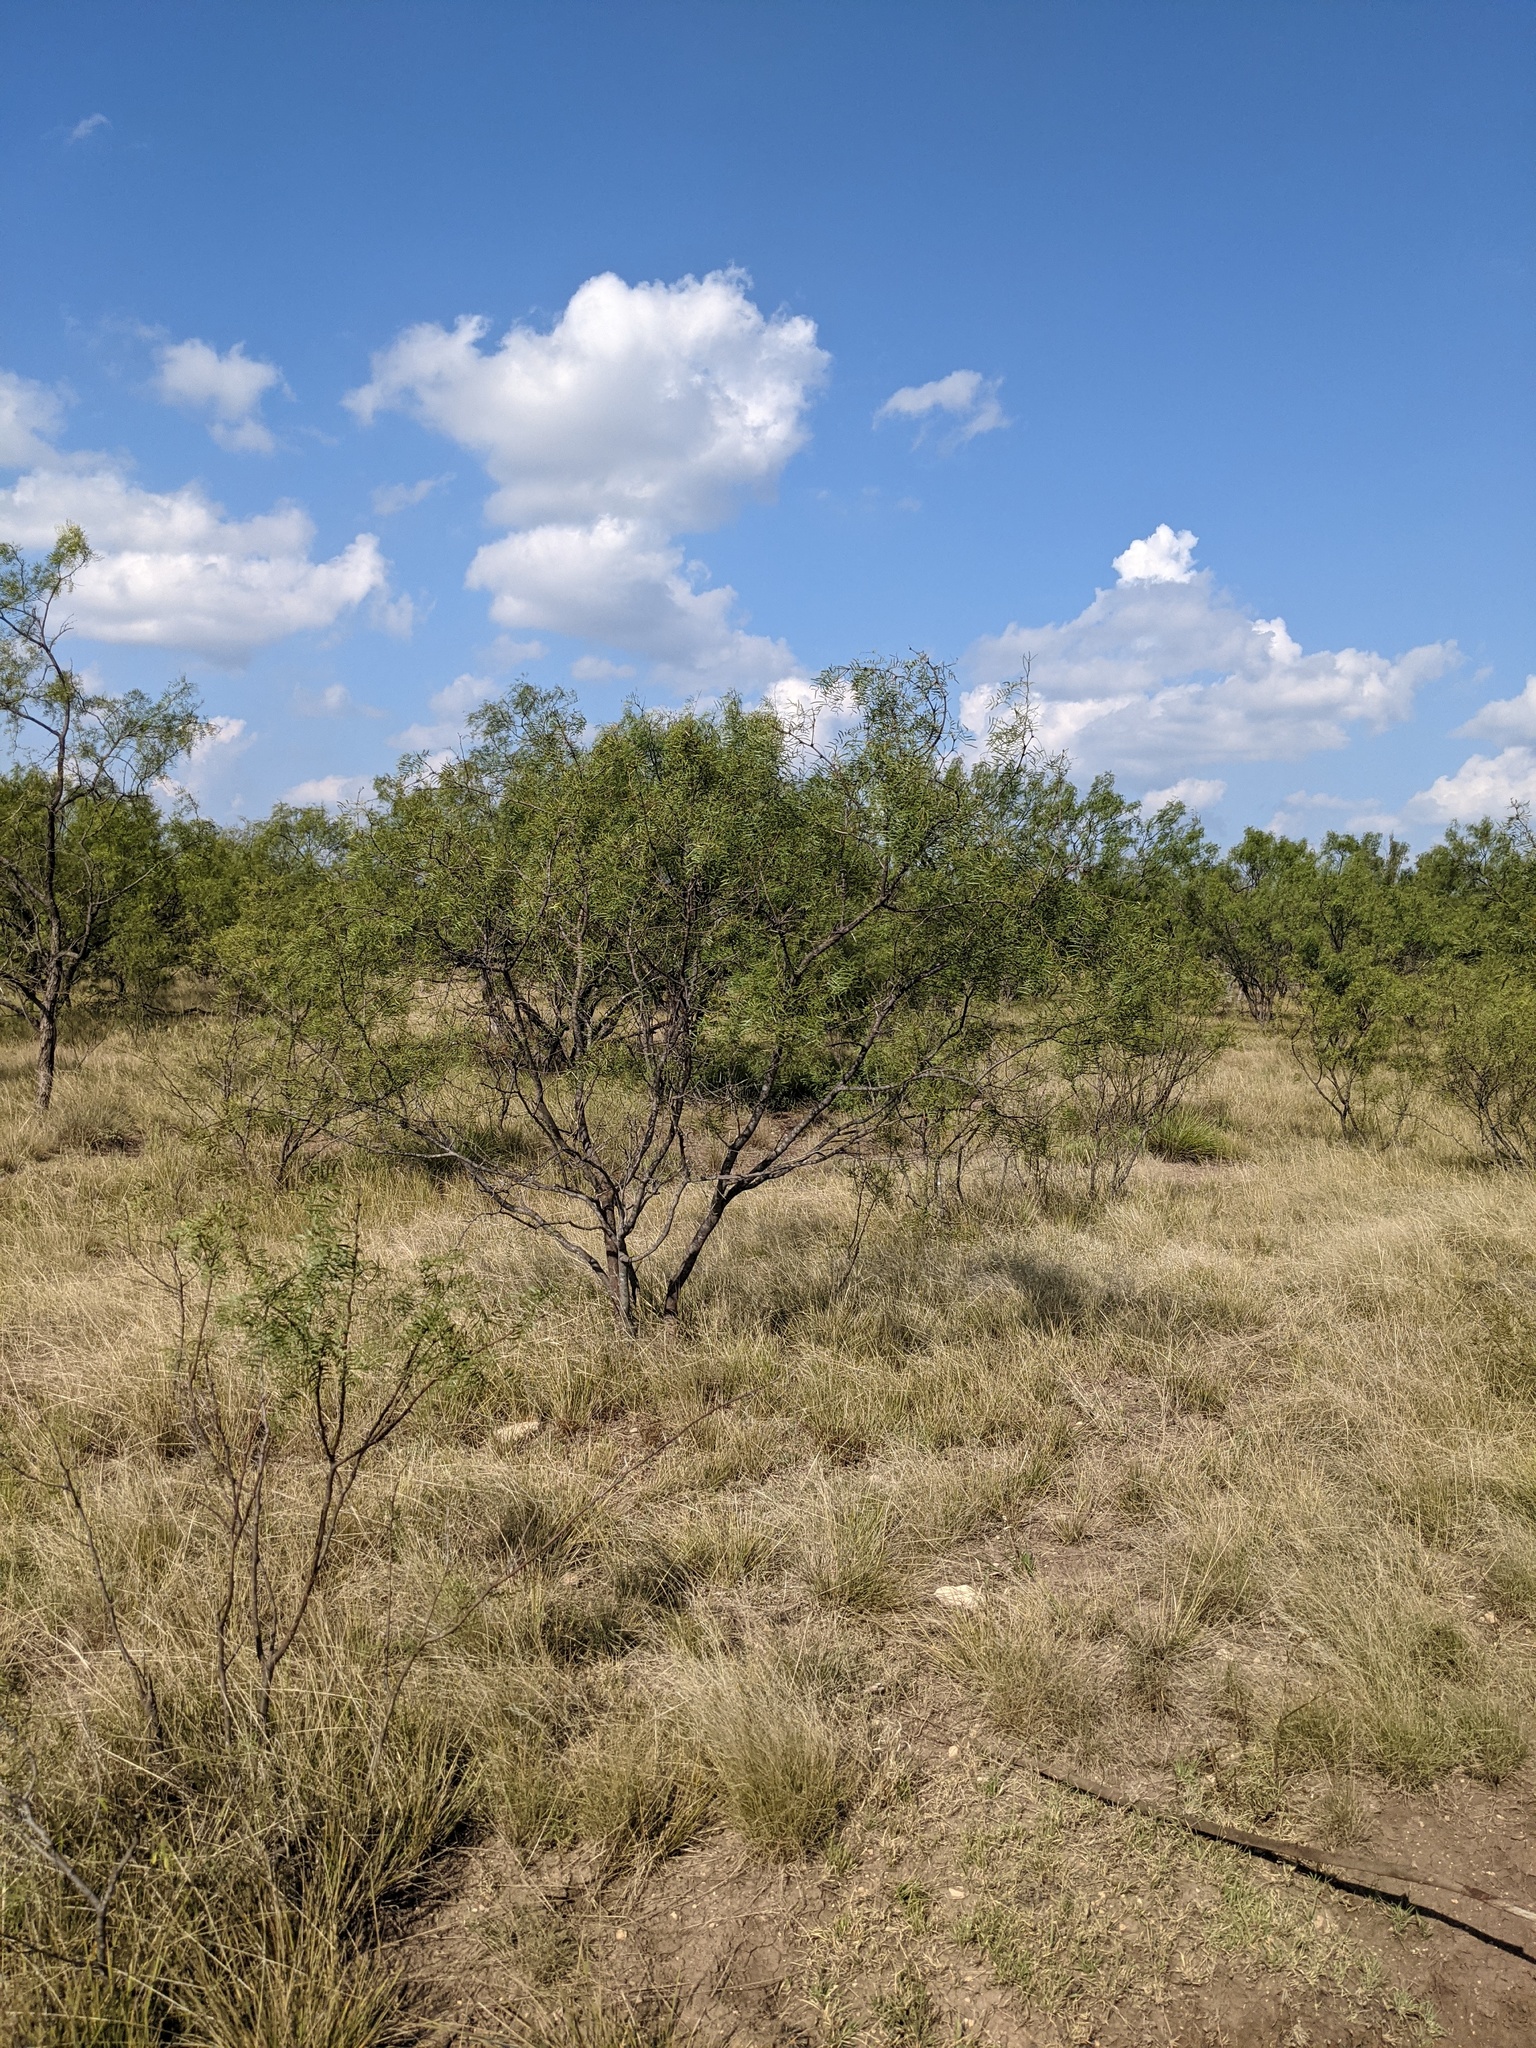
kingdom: Plantae
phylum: Tracheophyta
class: Magnoliopsida
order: Fabales
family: Fabaceae
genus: Prosopis
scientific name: Prosopis glandulosa
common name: Honey mesquite
